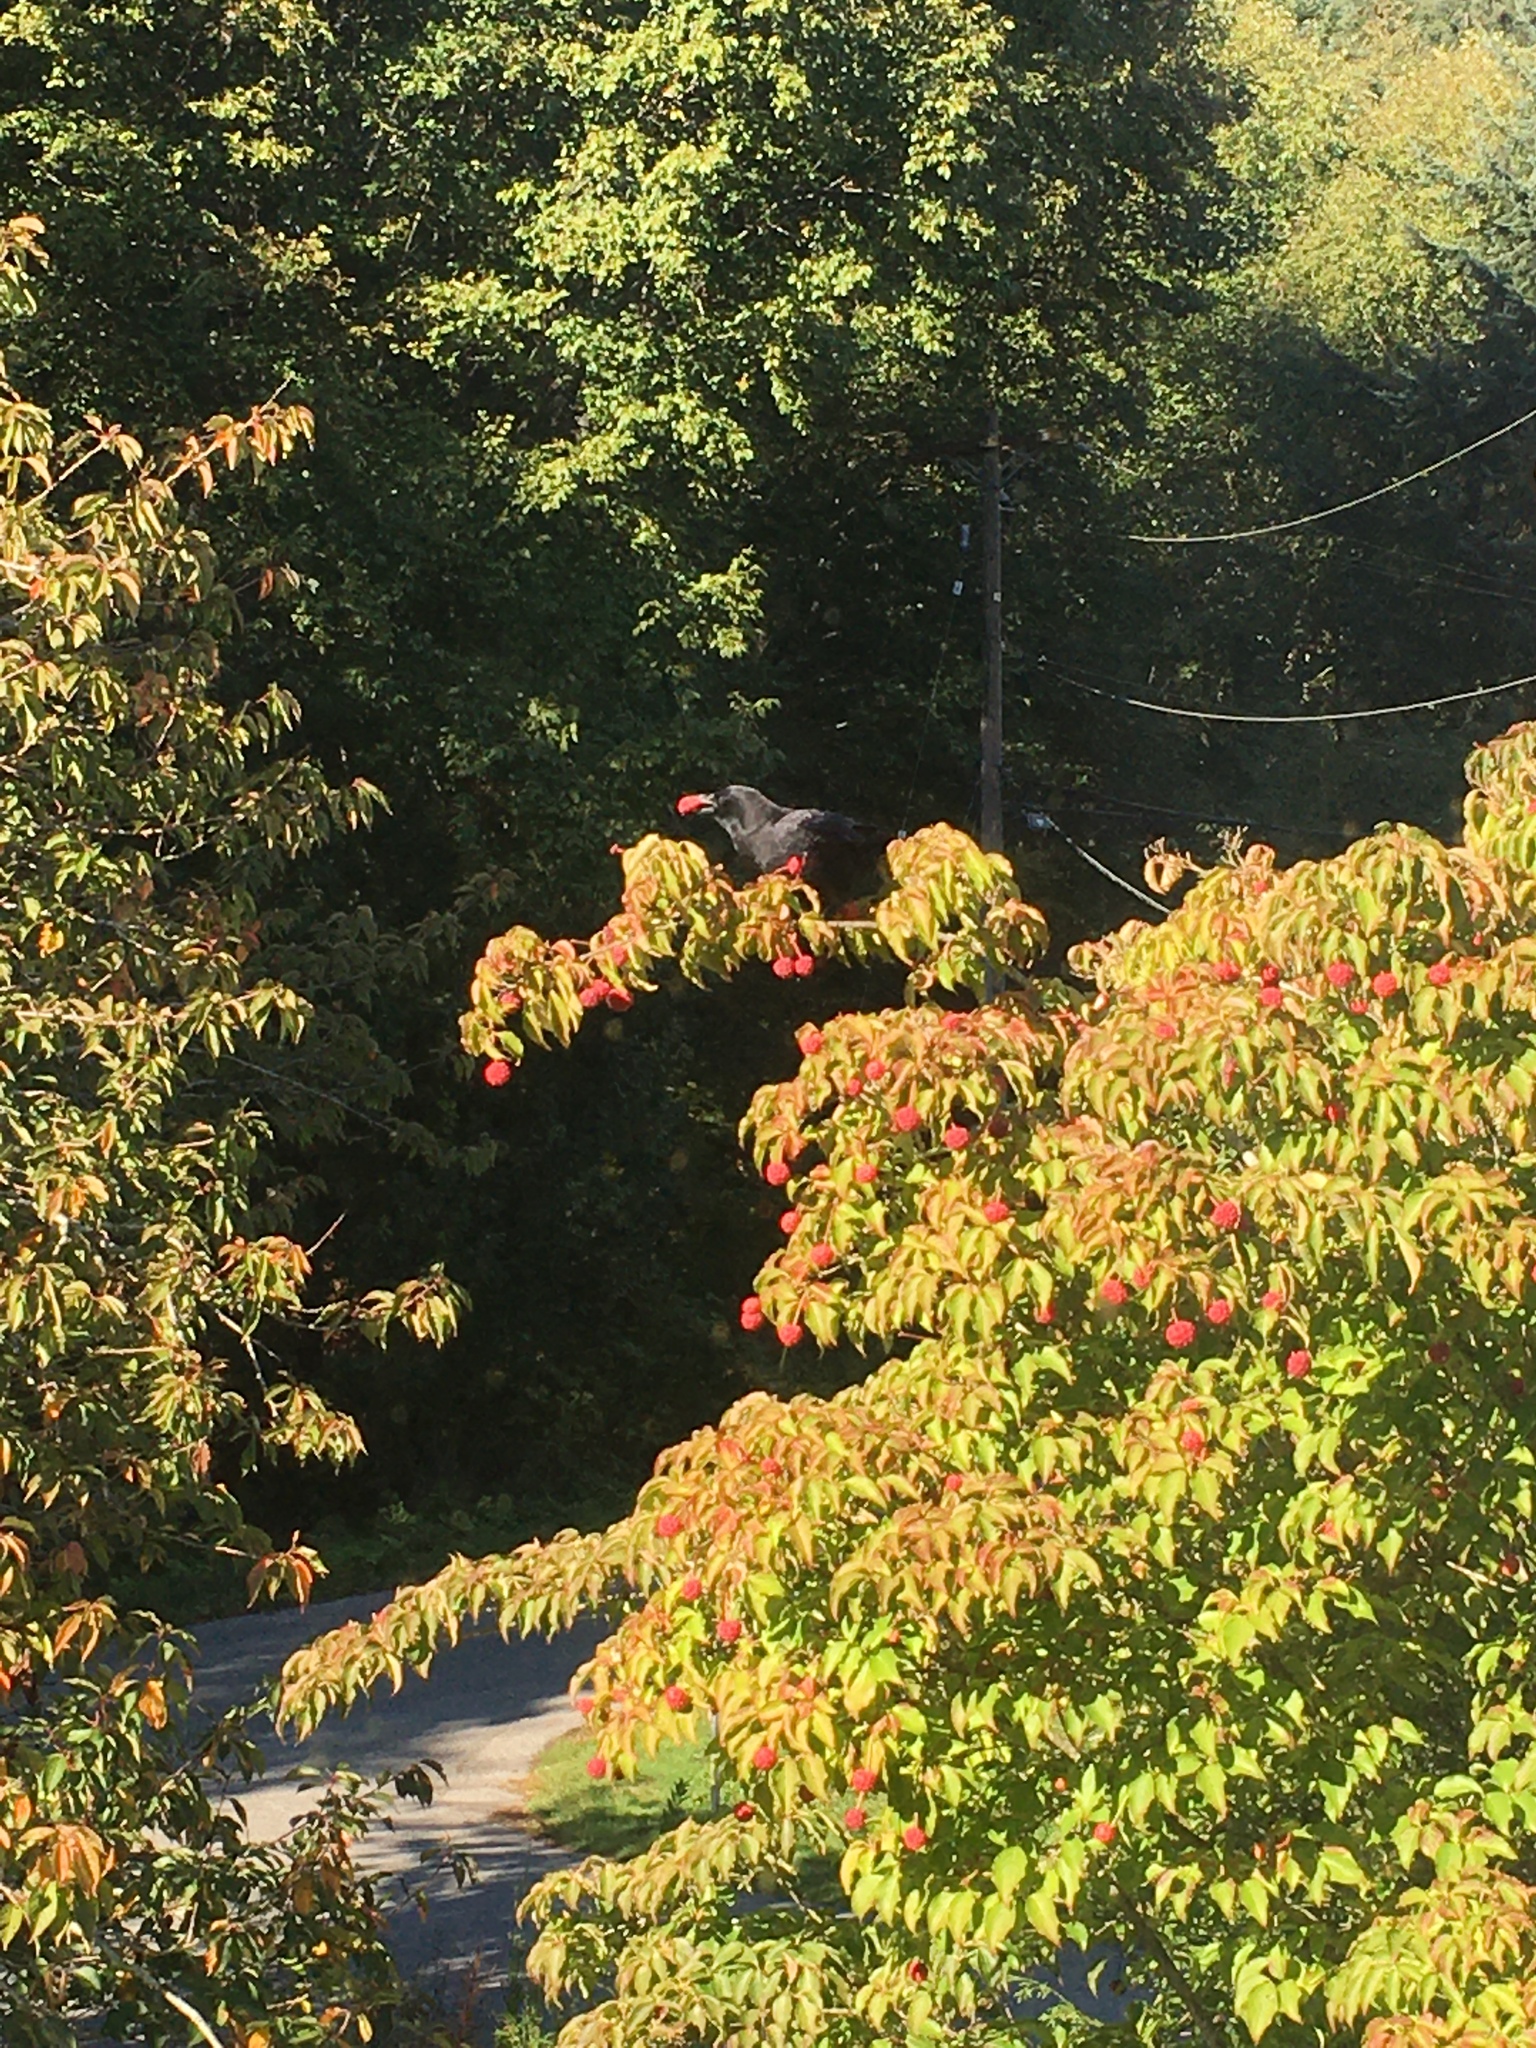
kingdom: Animalia
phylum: Chordata
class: Aves
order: Passeriformes
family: Corvidae
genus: Corvus
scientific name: Corvus brachyrhynchos
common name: American crow
